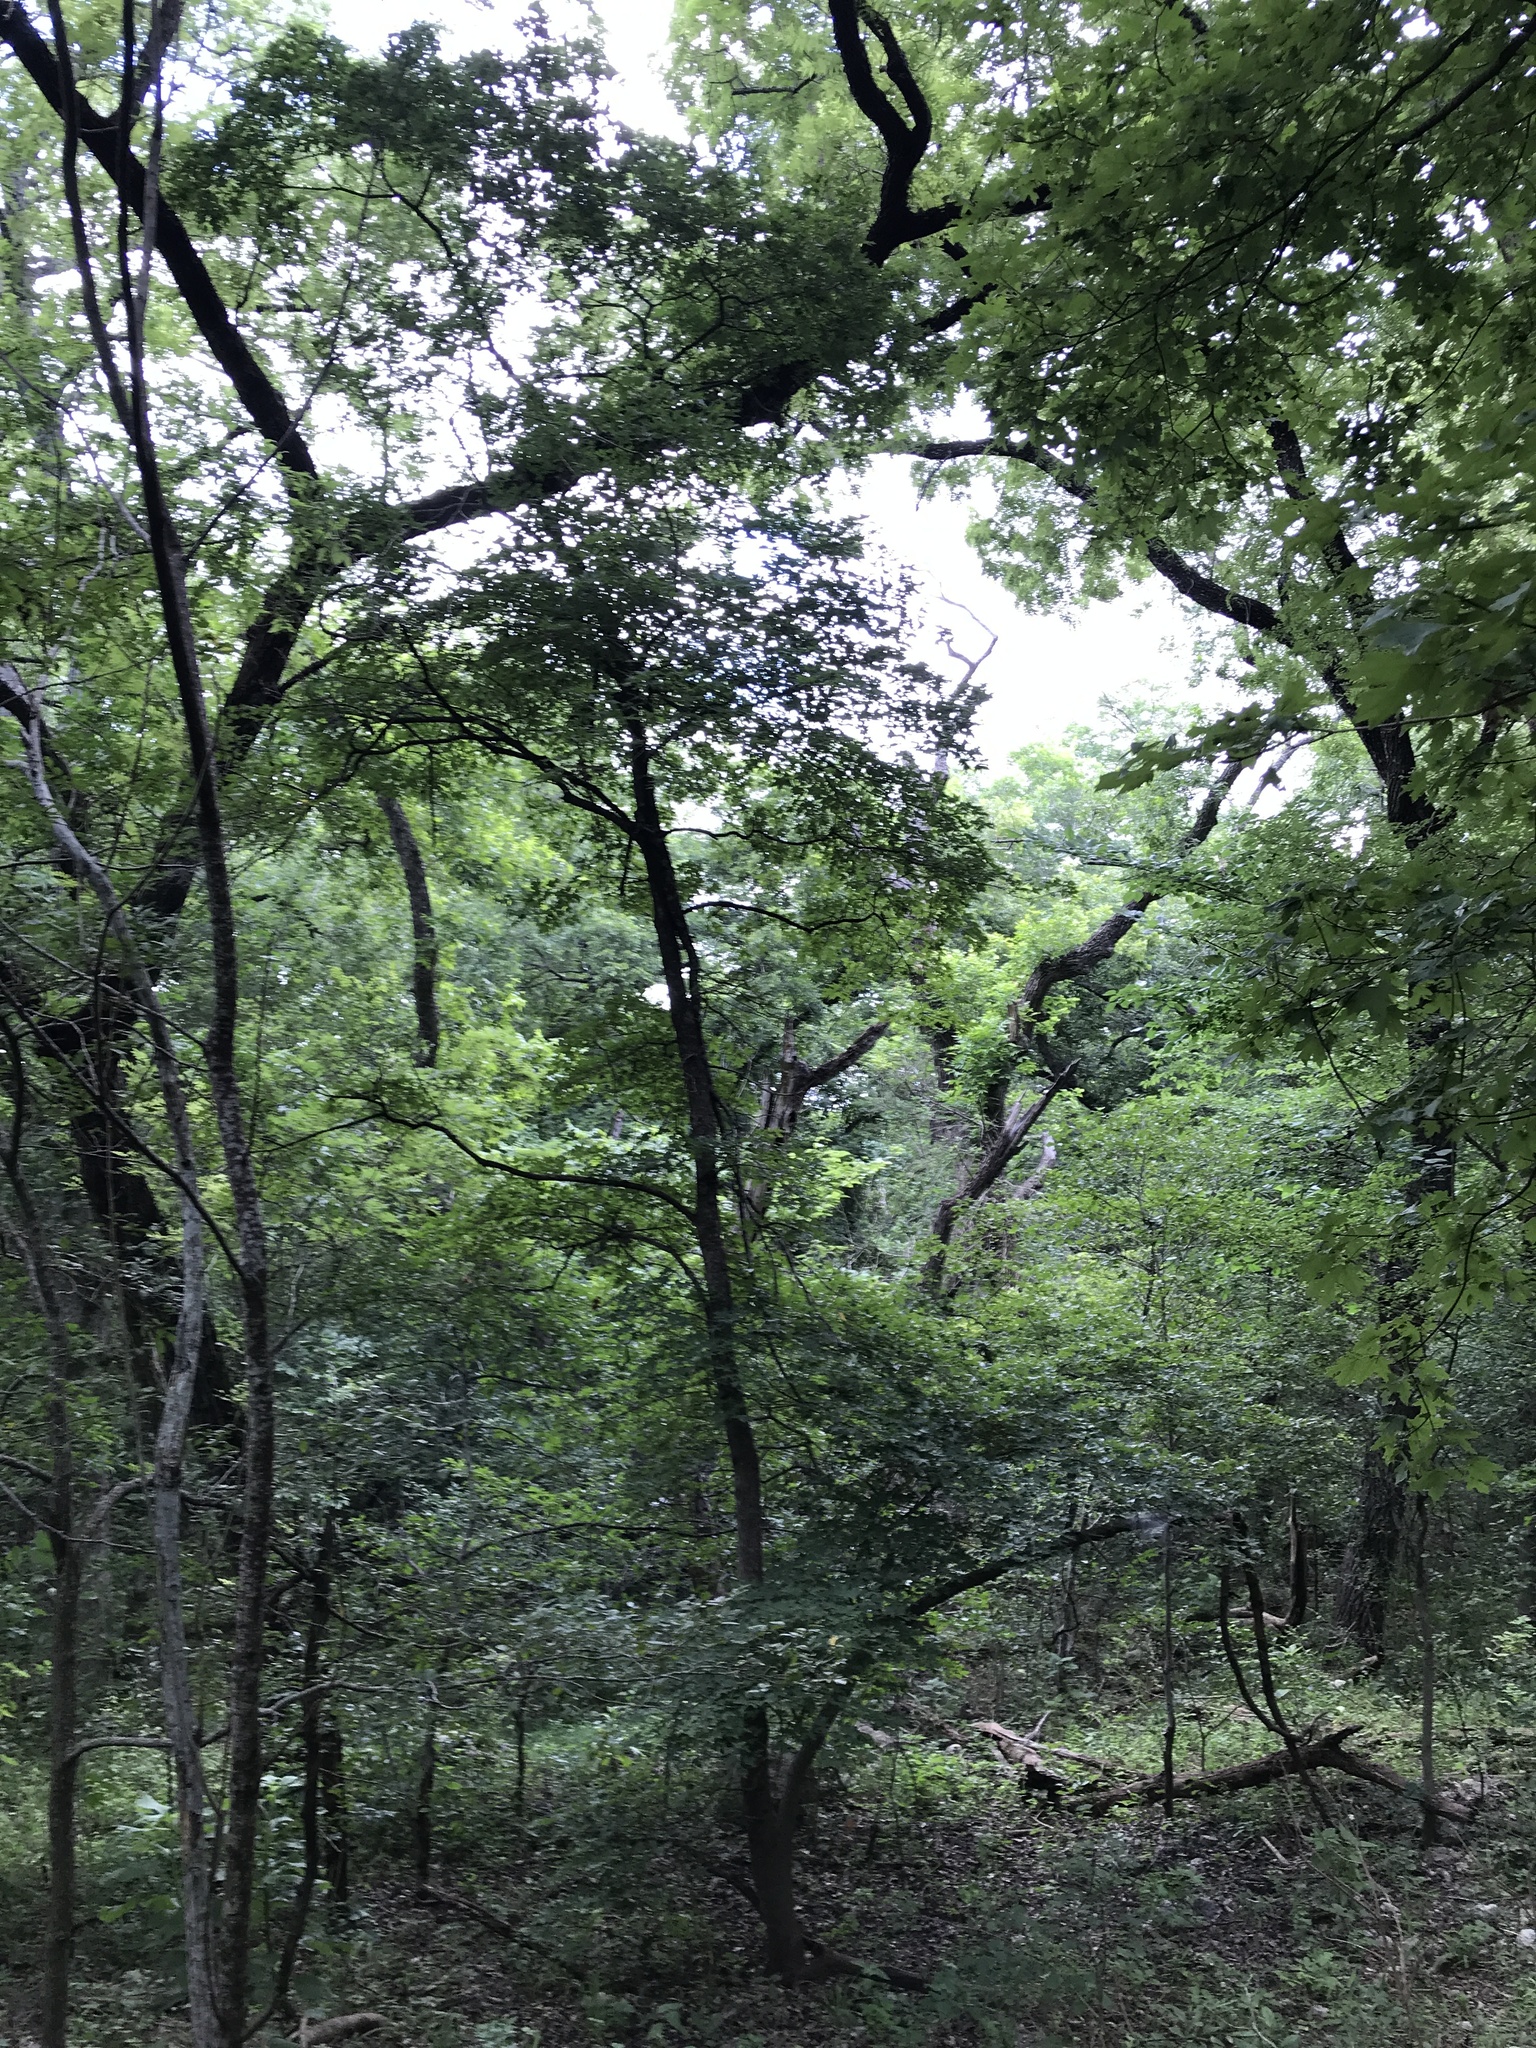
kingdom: Plantae
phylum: Tracheophyta
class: Magnoliopsida
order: Sapindales
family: Sapindaceae
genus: Acer
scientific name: Acer grandidentatum
